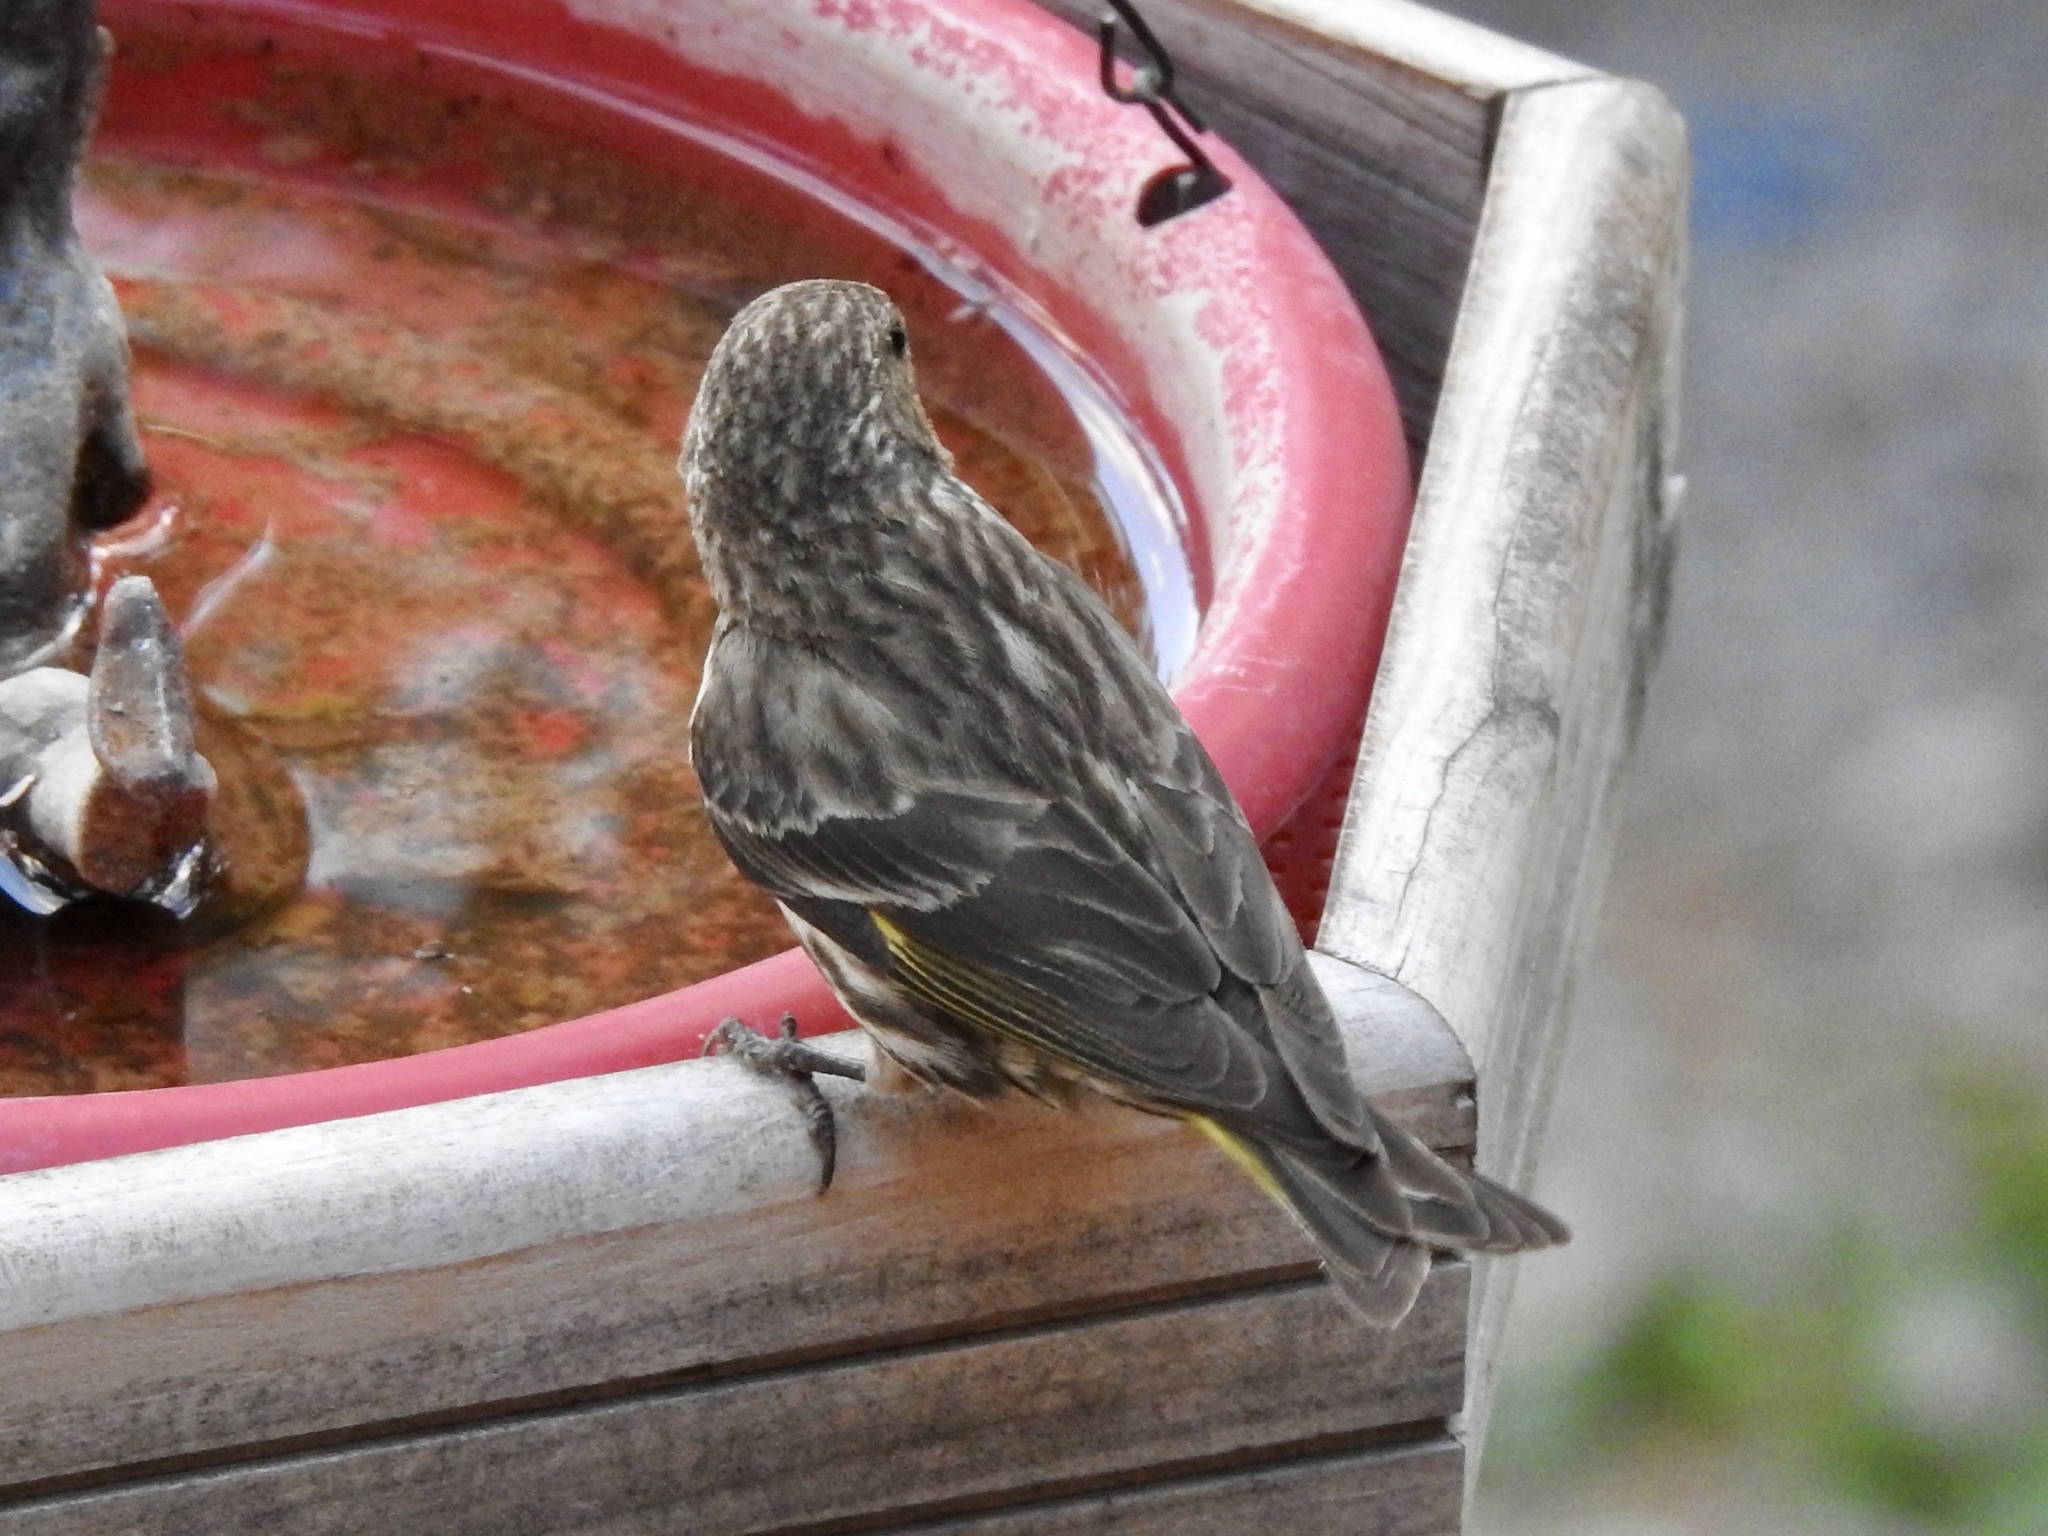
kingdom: Animalia
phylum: Chordata
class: Aves
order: Passeriformes
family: Fringillidae
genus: Spinus
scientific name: Spinus pinus
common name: Pine siskin
